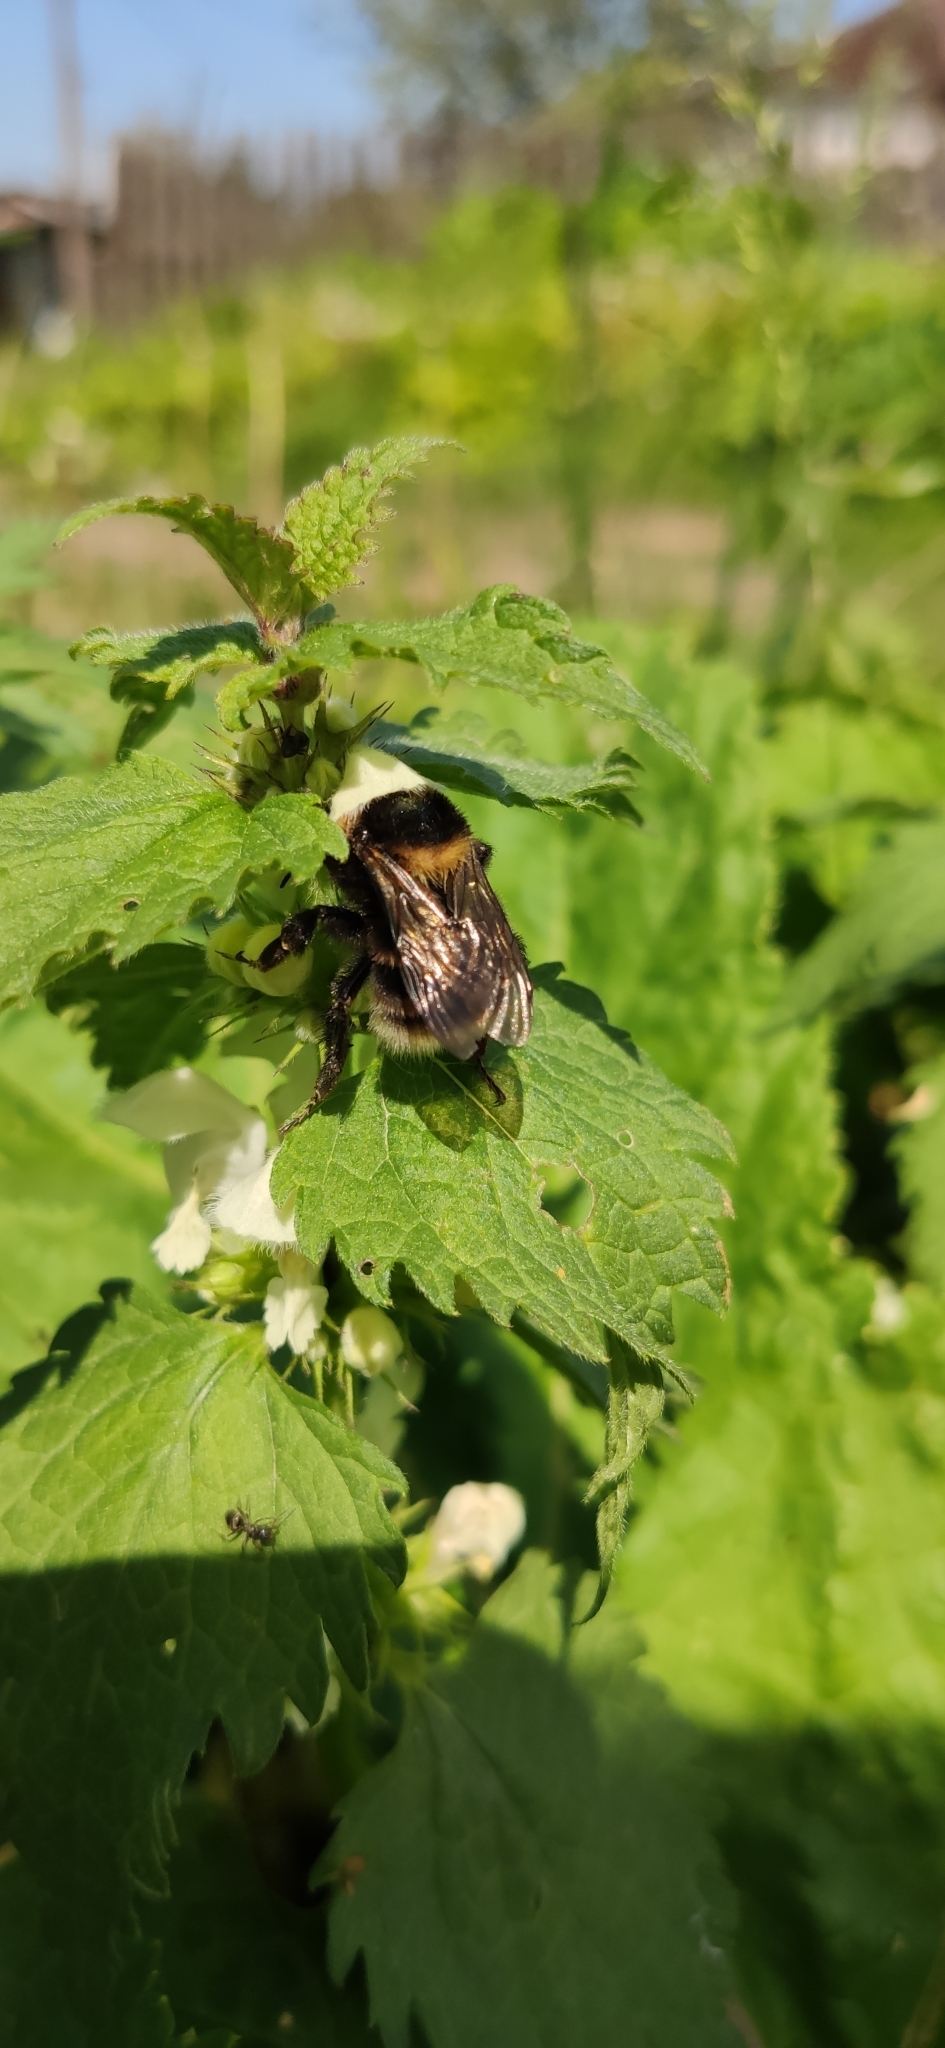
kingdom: Animalia
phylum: Arthropoda
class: Insecta
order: Hymenoptera
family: Apidae
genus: Bombus
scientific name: Bombus subterraneus
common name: Short-haired humble-bee
